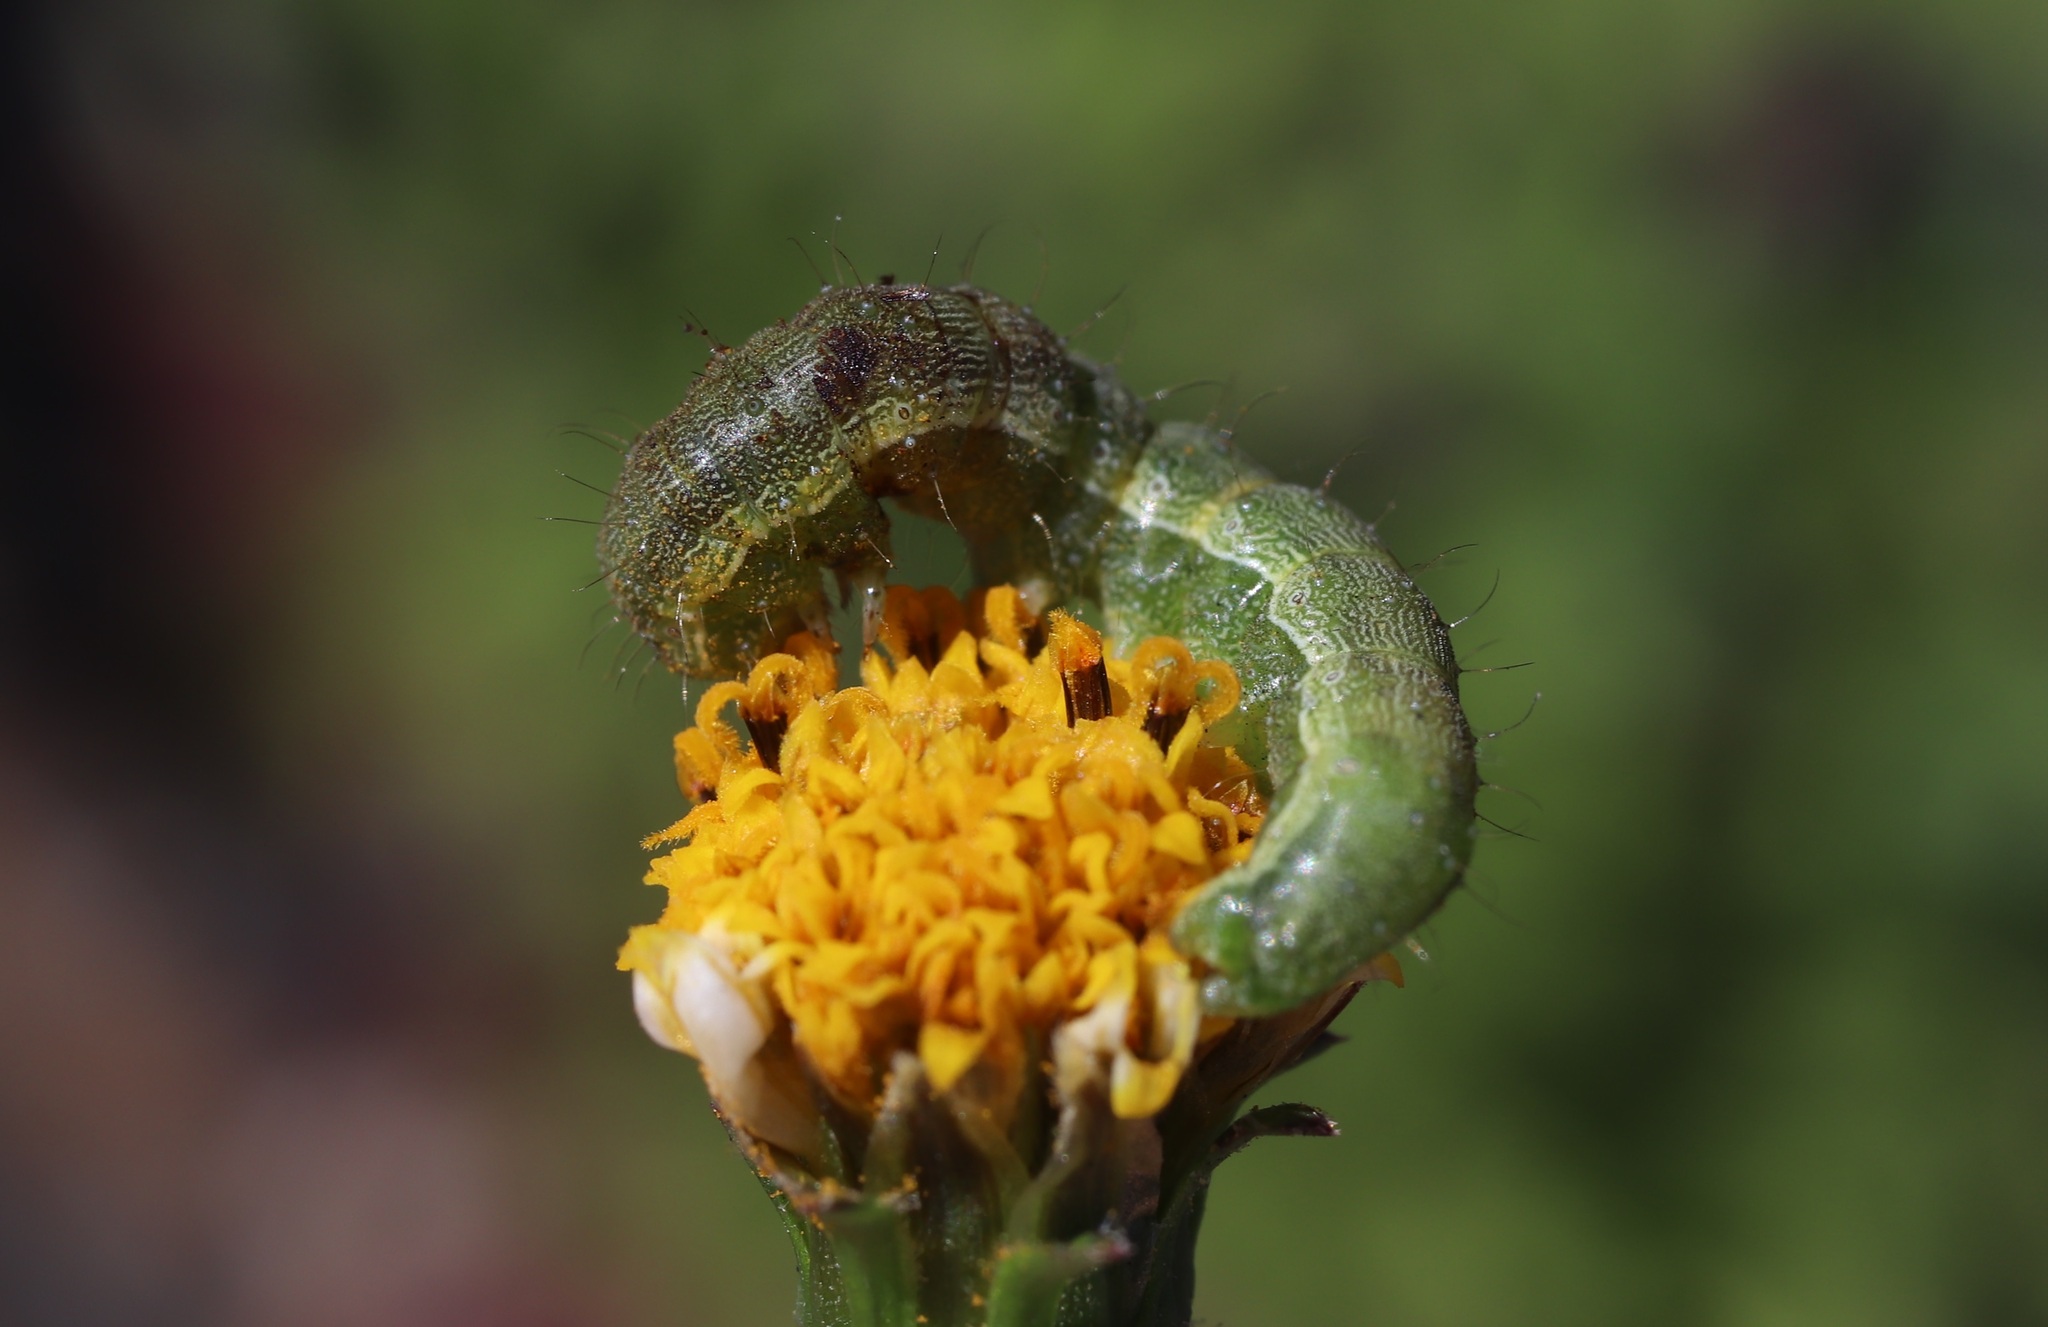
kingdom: Animalia
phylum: Arthropoda
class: Insecta
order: Lepidoptera
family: Noctuidae
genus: Helicoverpa
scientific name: Helicoverpa armigera
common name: Cotton bollworm
